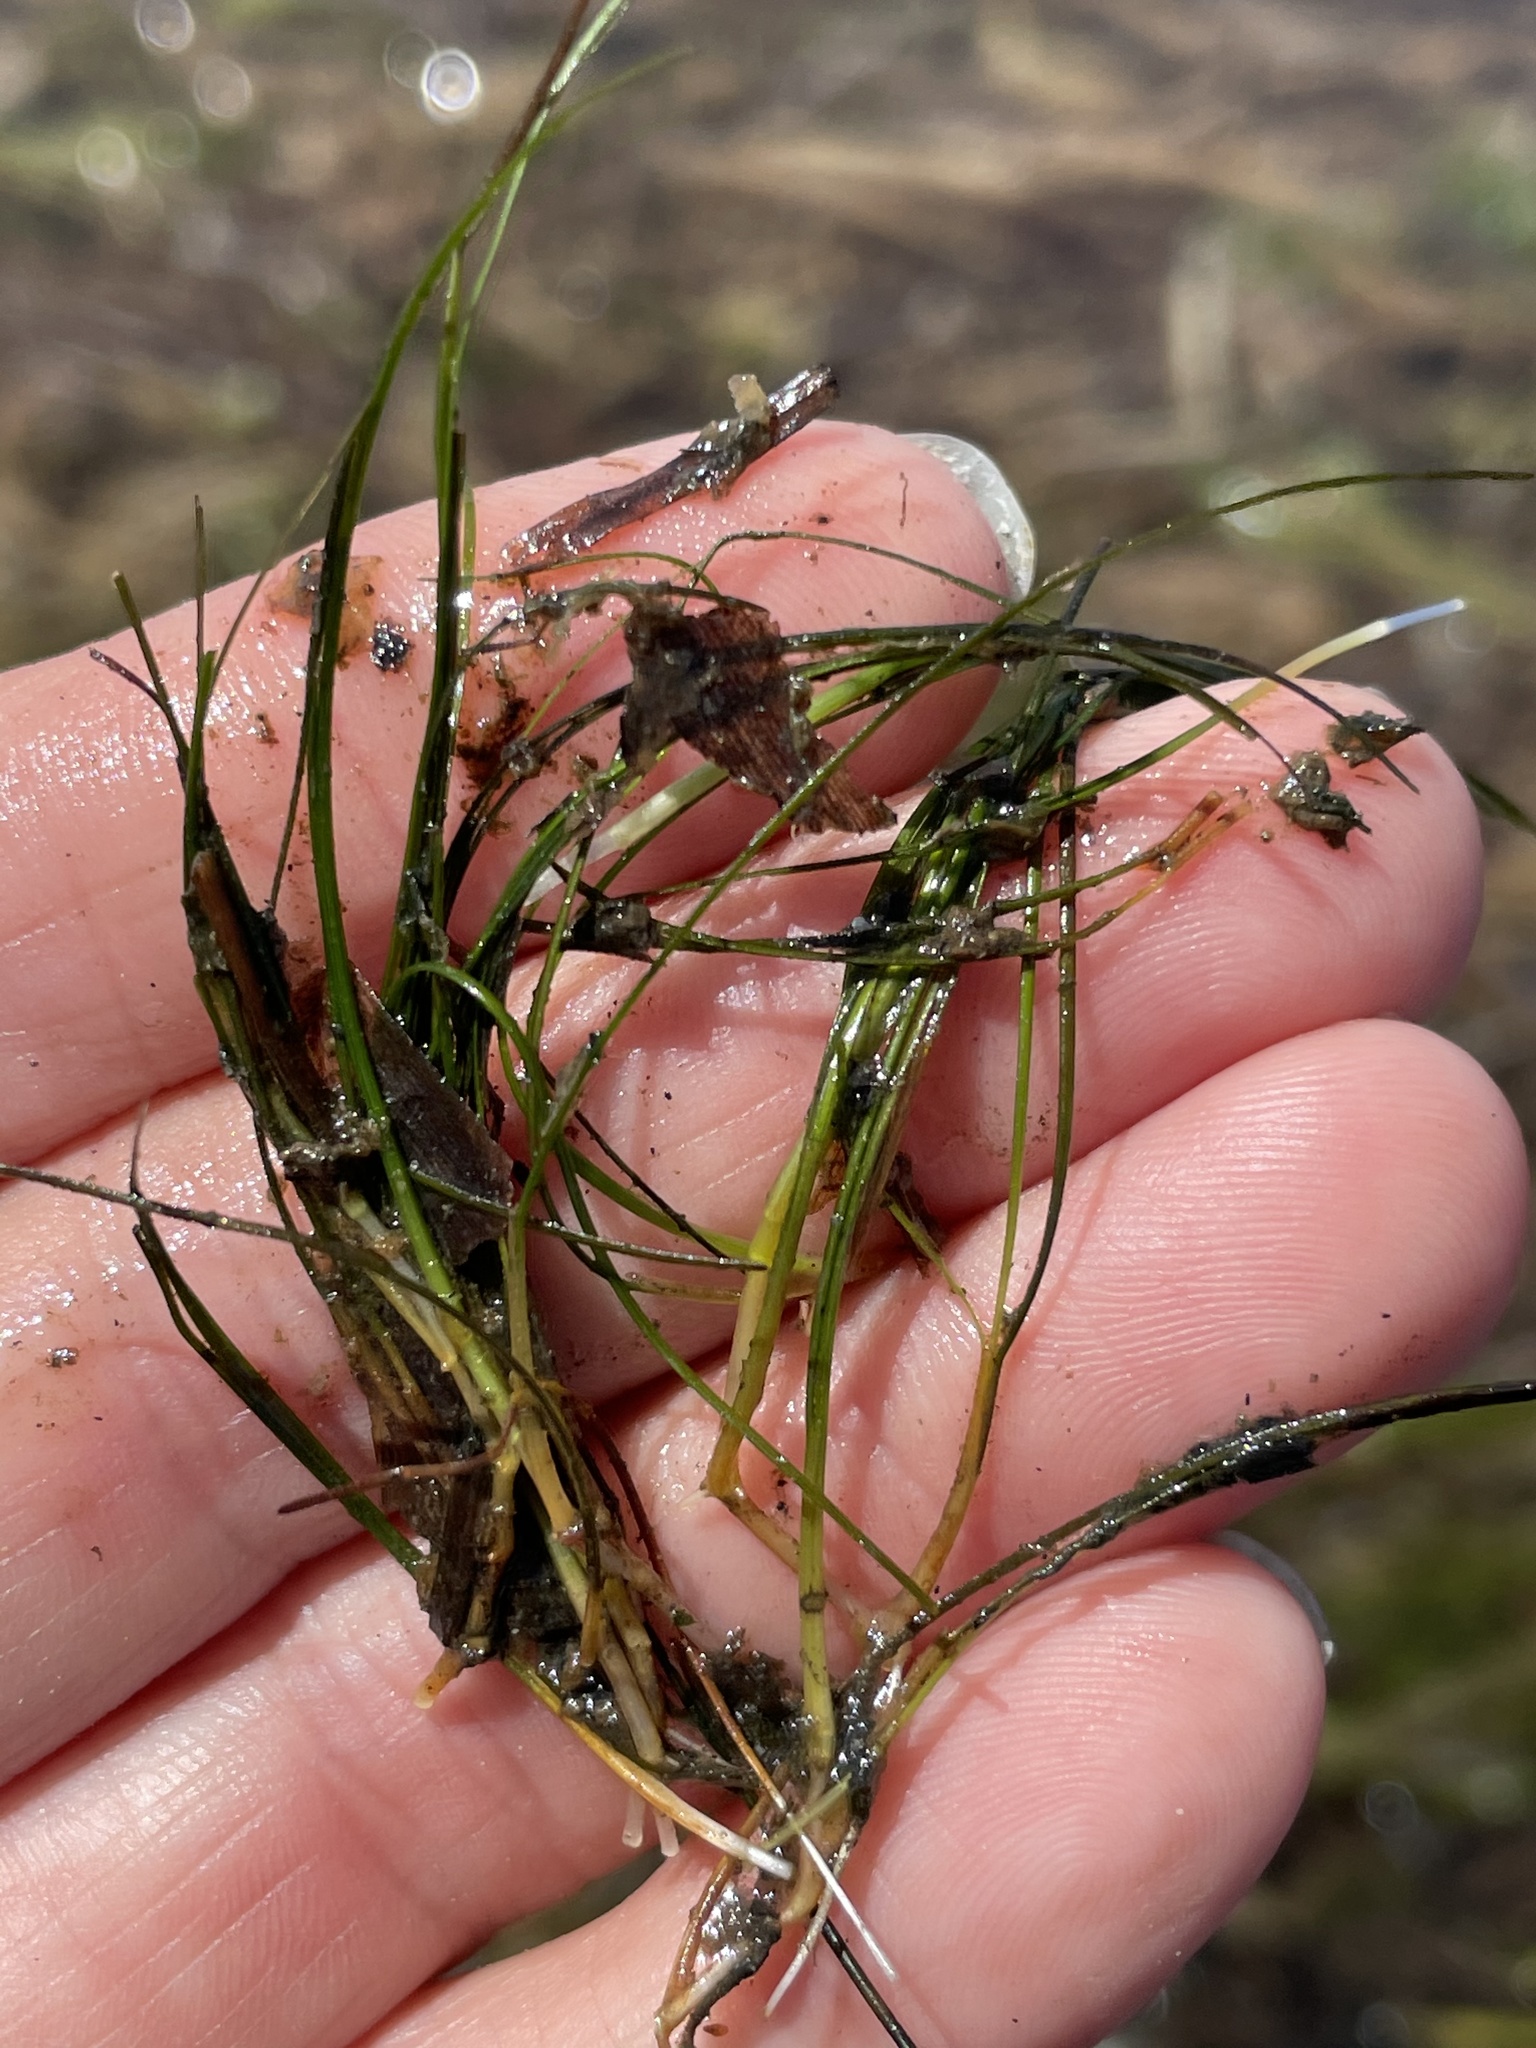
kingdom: Plantae
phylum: Tracheophyta
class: Liliopsida
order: Alismatales
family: Ruppiaceae
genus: Ruppia
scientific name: Ruppia maritima
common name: Beaked tasselweed
